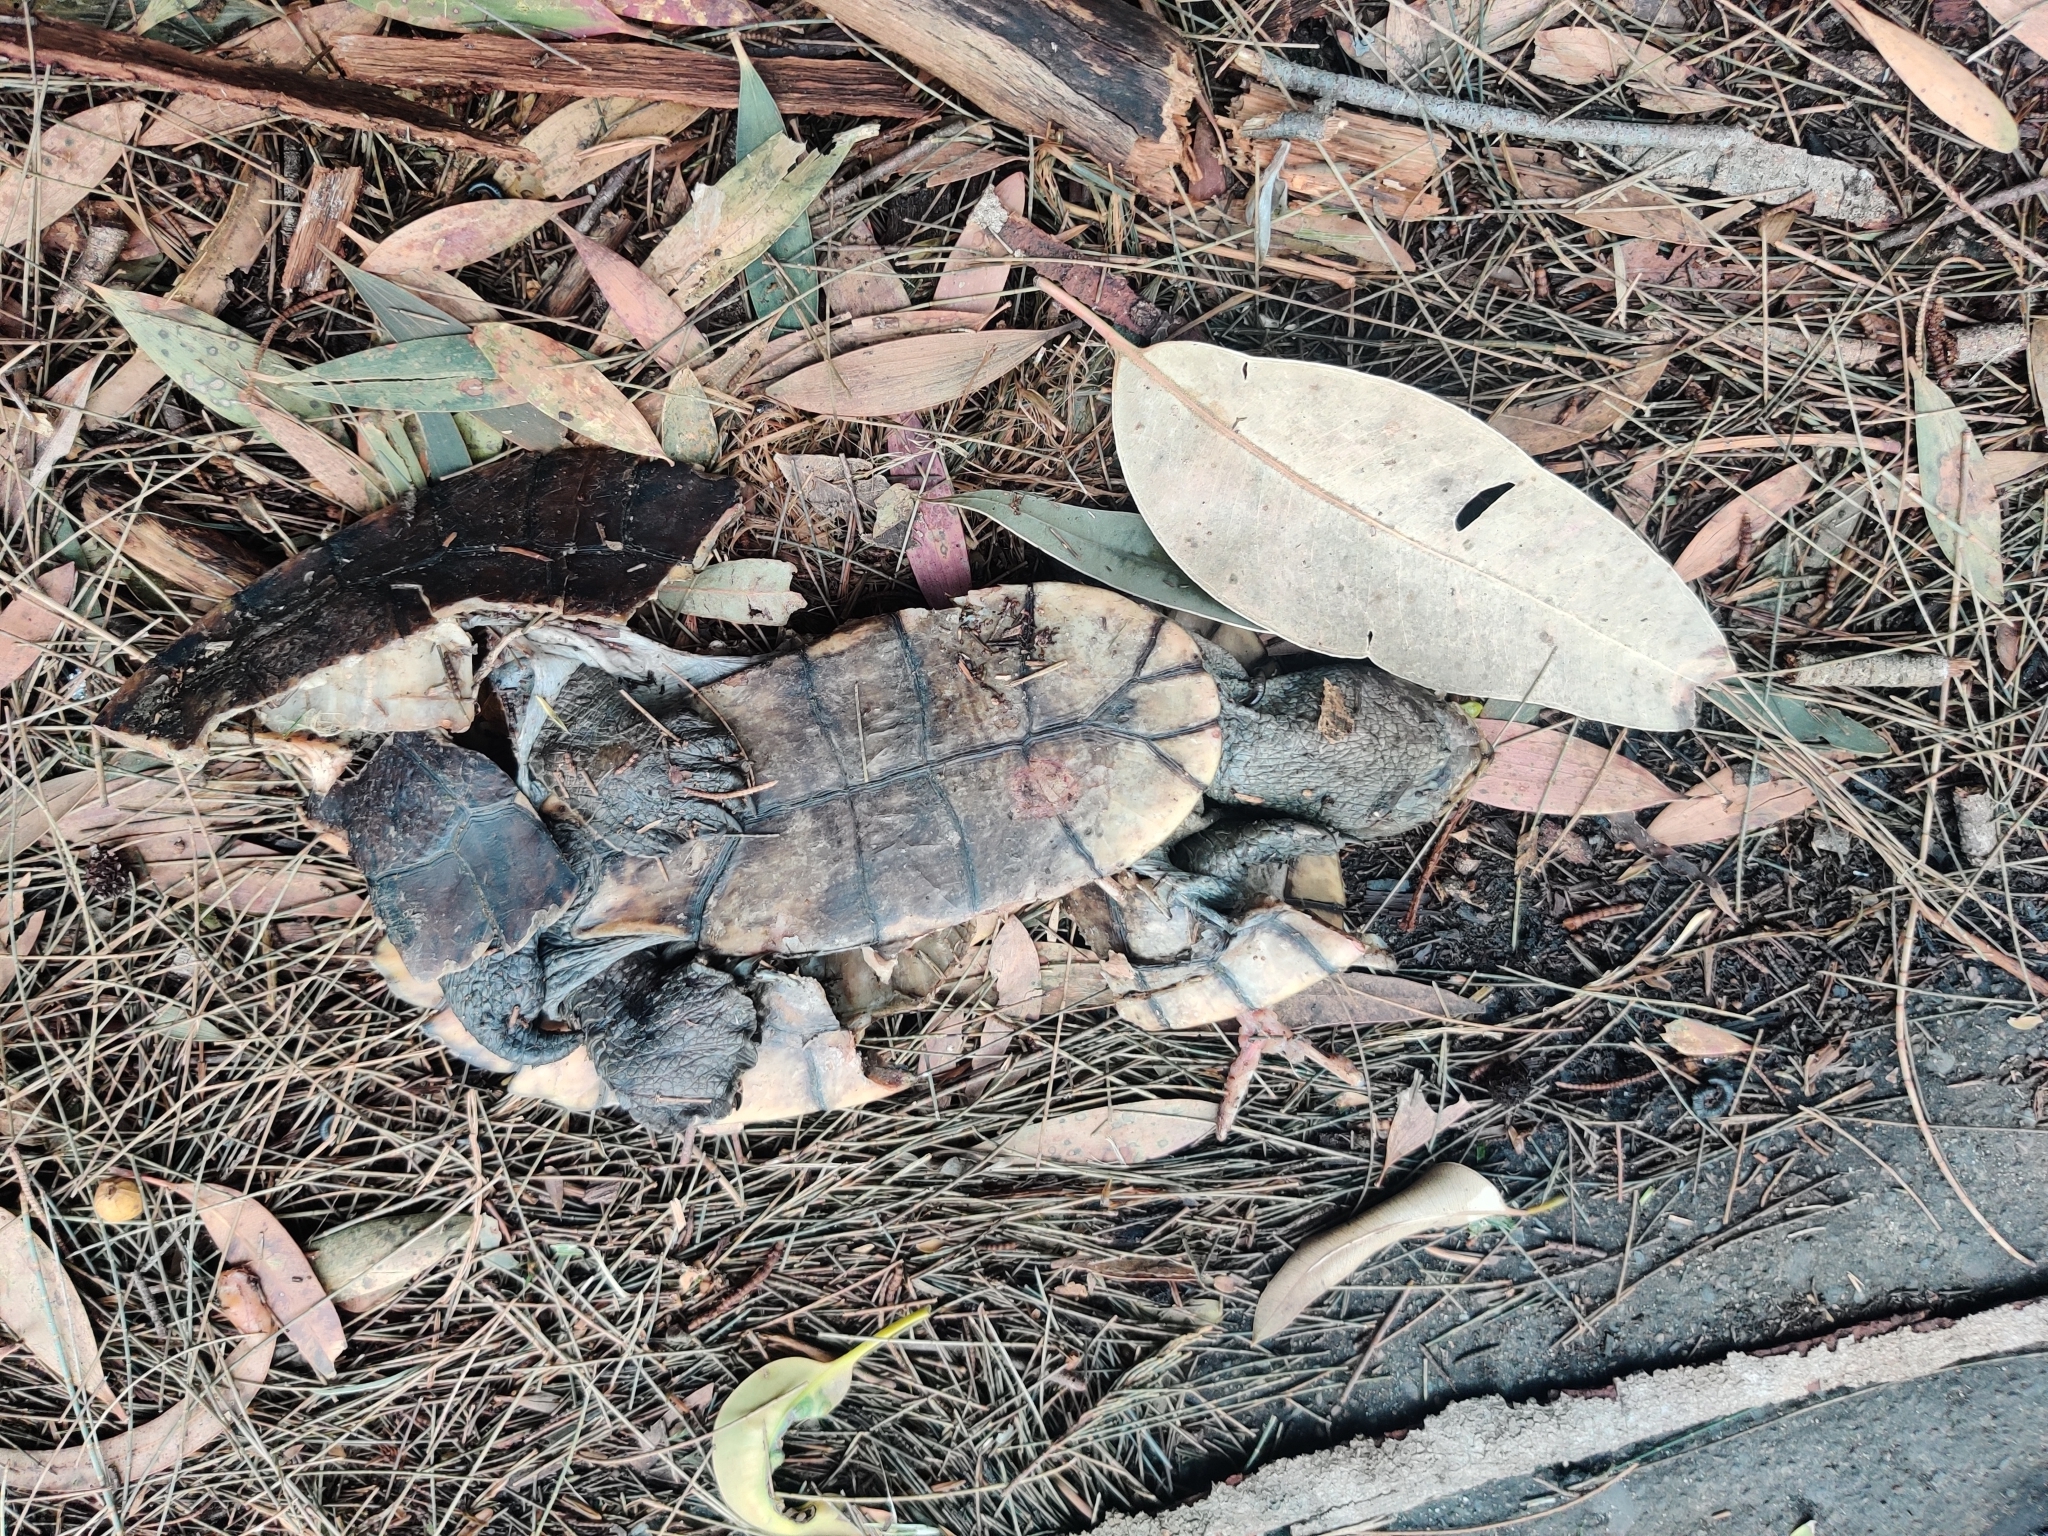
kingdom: Animalia
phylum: Chordata
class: Testudines
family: Chelidae
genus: Myuchelys
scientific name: Myuchelys latisternum
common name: Serrated snapping turtle
